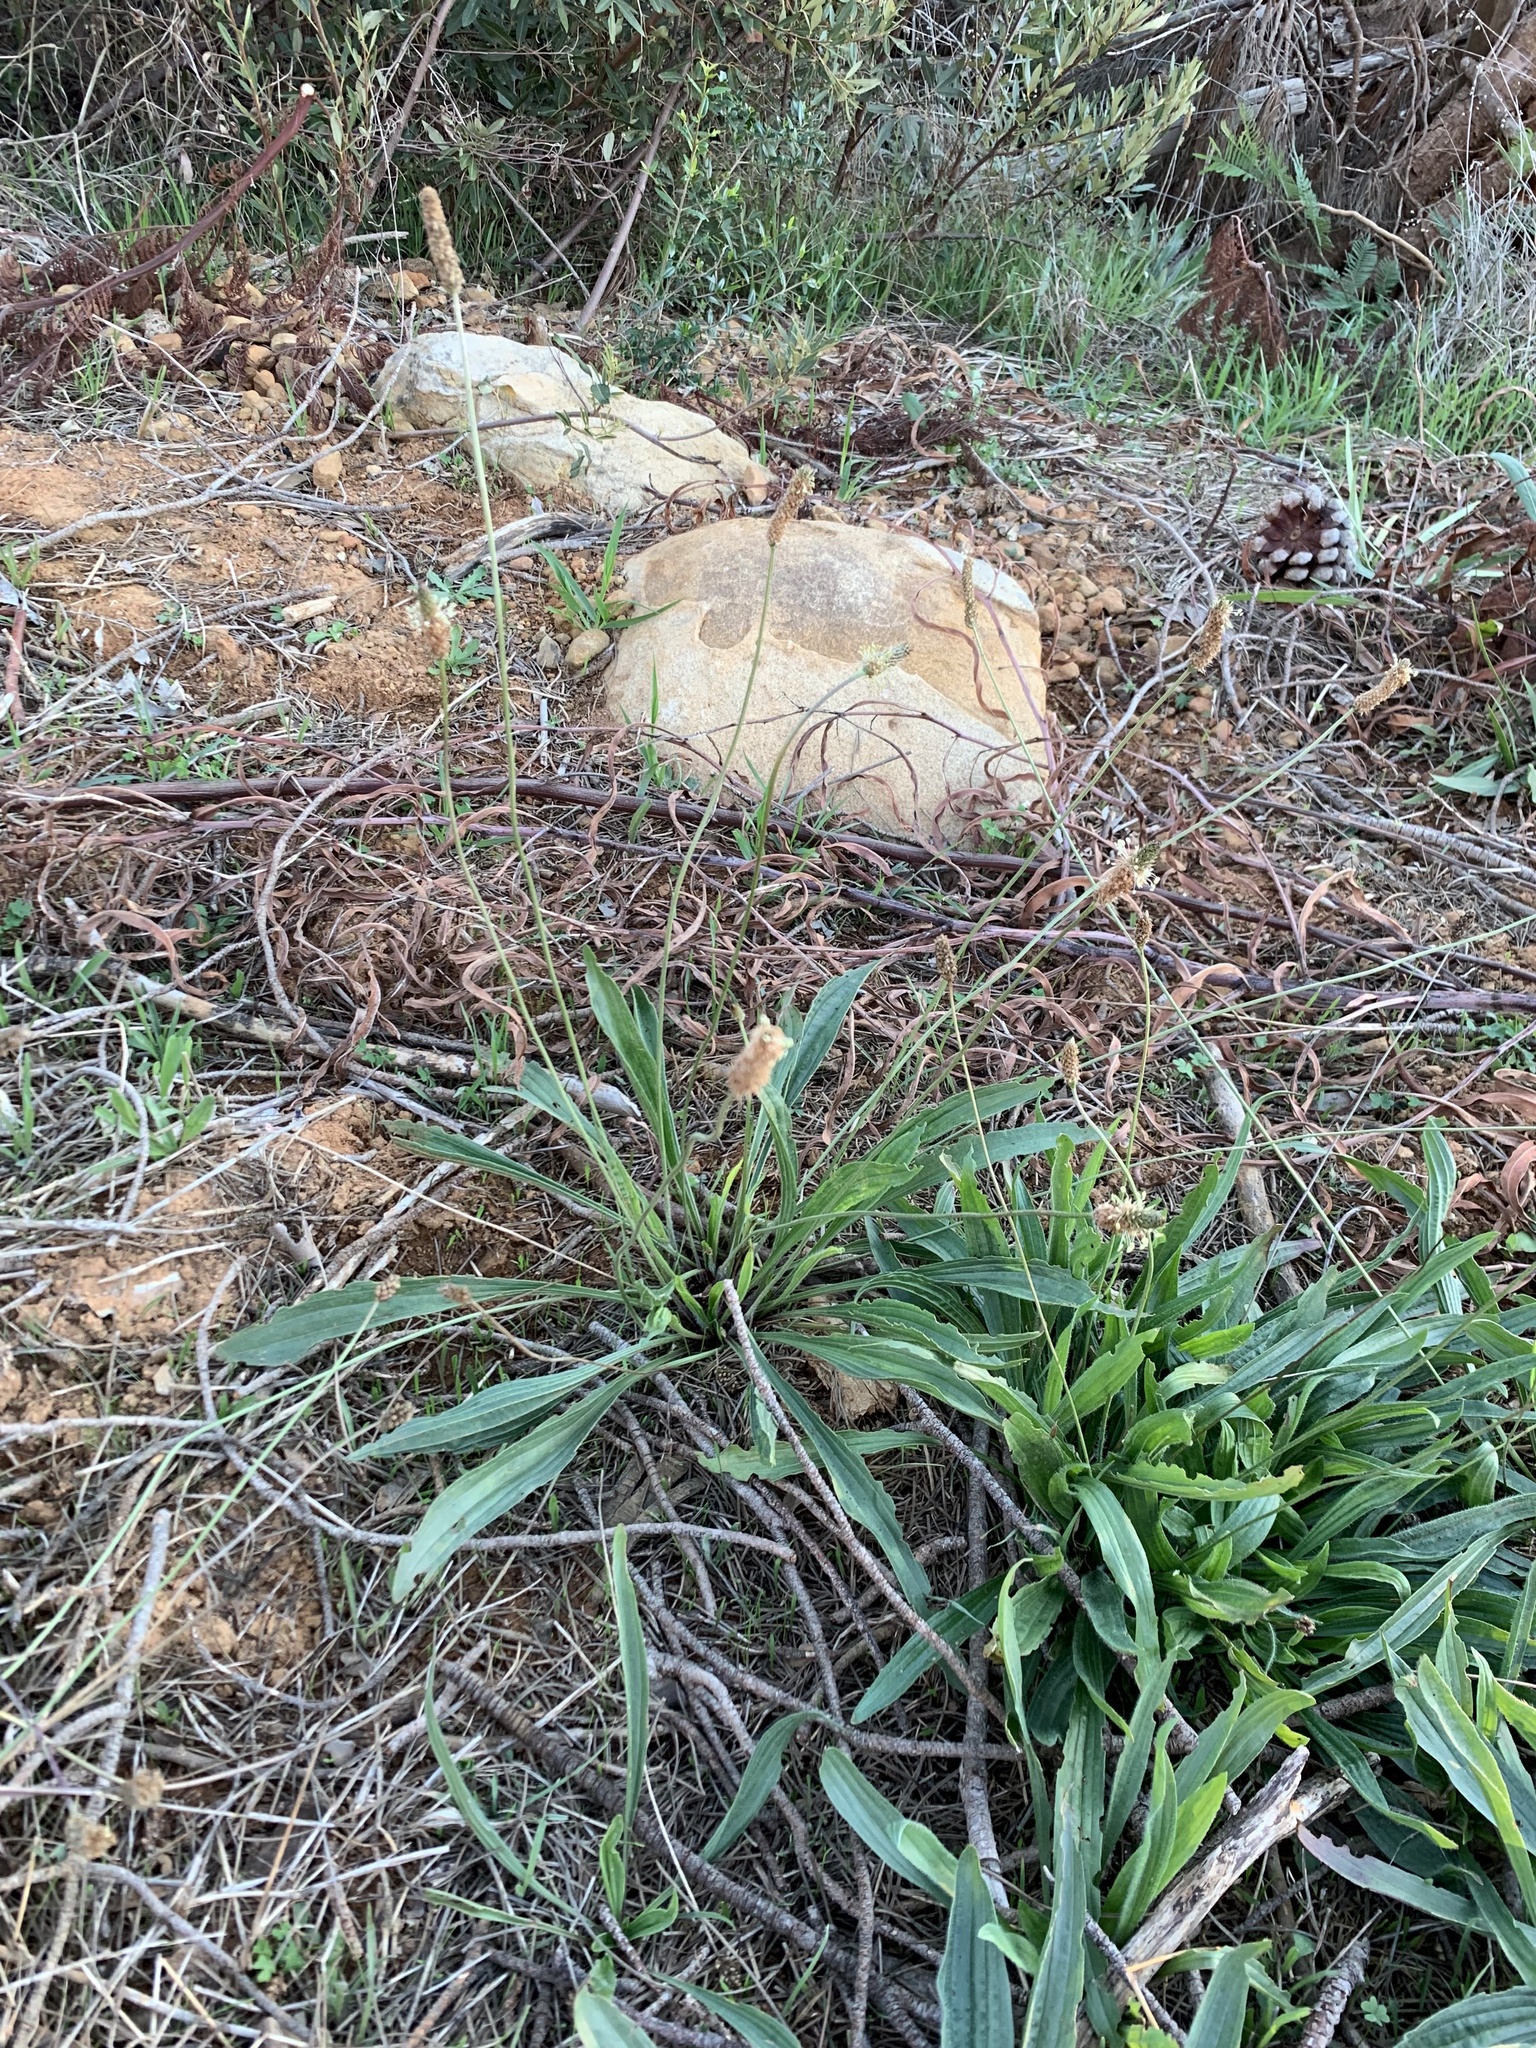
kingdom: Plantae
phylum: Tracheophyta
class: Magnoliopsida
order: Lamiales
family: Plantaginaceae
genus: Plantago
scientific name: Plantago lanceolata
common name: Ribwort plantain
